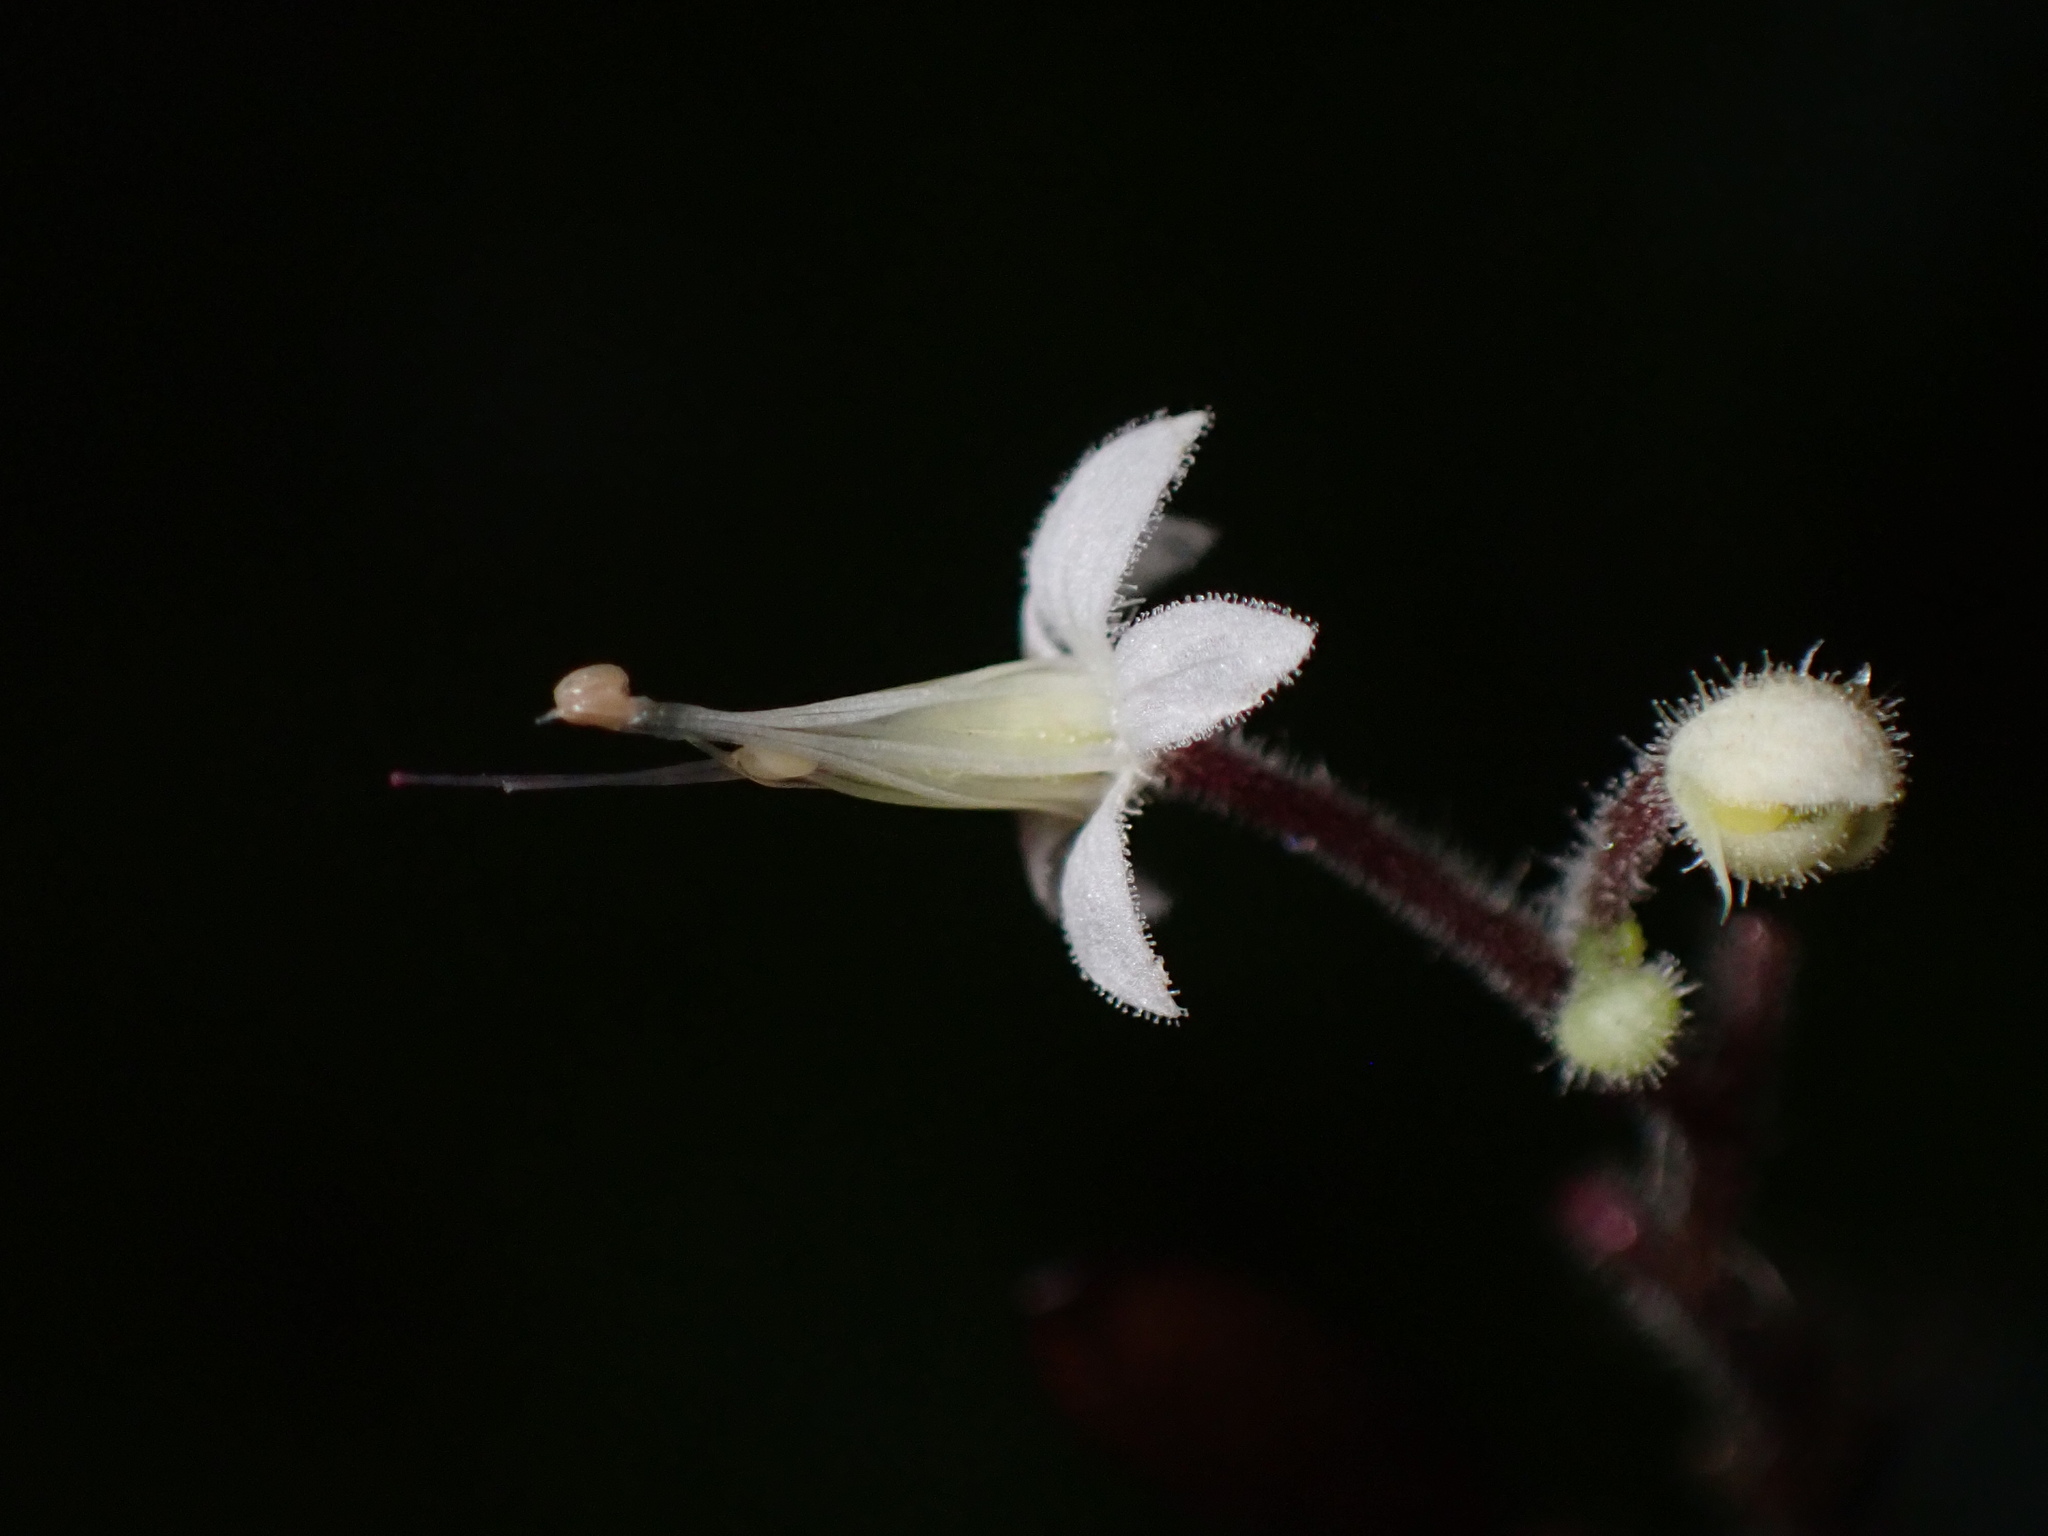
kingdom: Plantae
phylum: Tracheophyta
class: Magnoliopsida
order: Saxifragales
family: Saxifragaceae
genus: Tiarella
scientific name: Tiarella trifoliata
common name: Sugar-scoop
